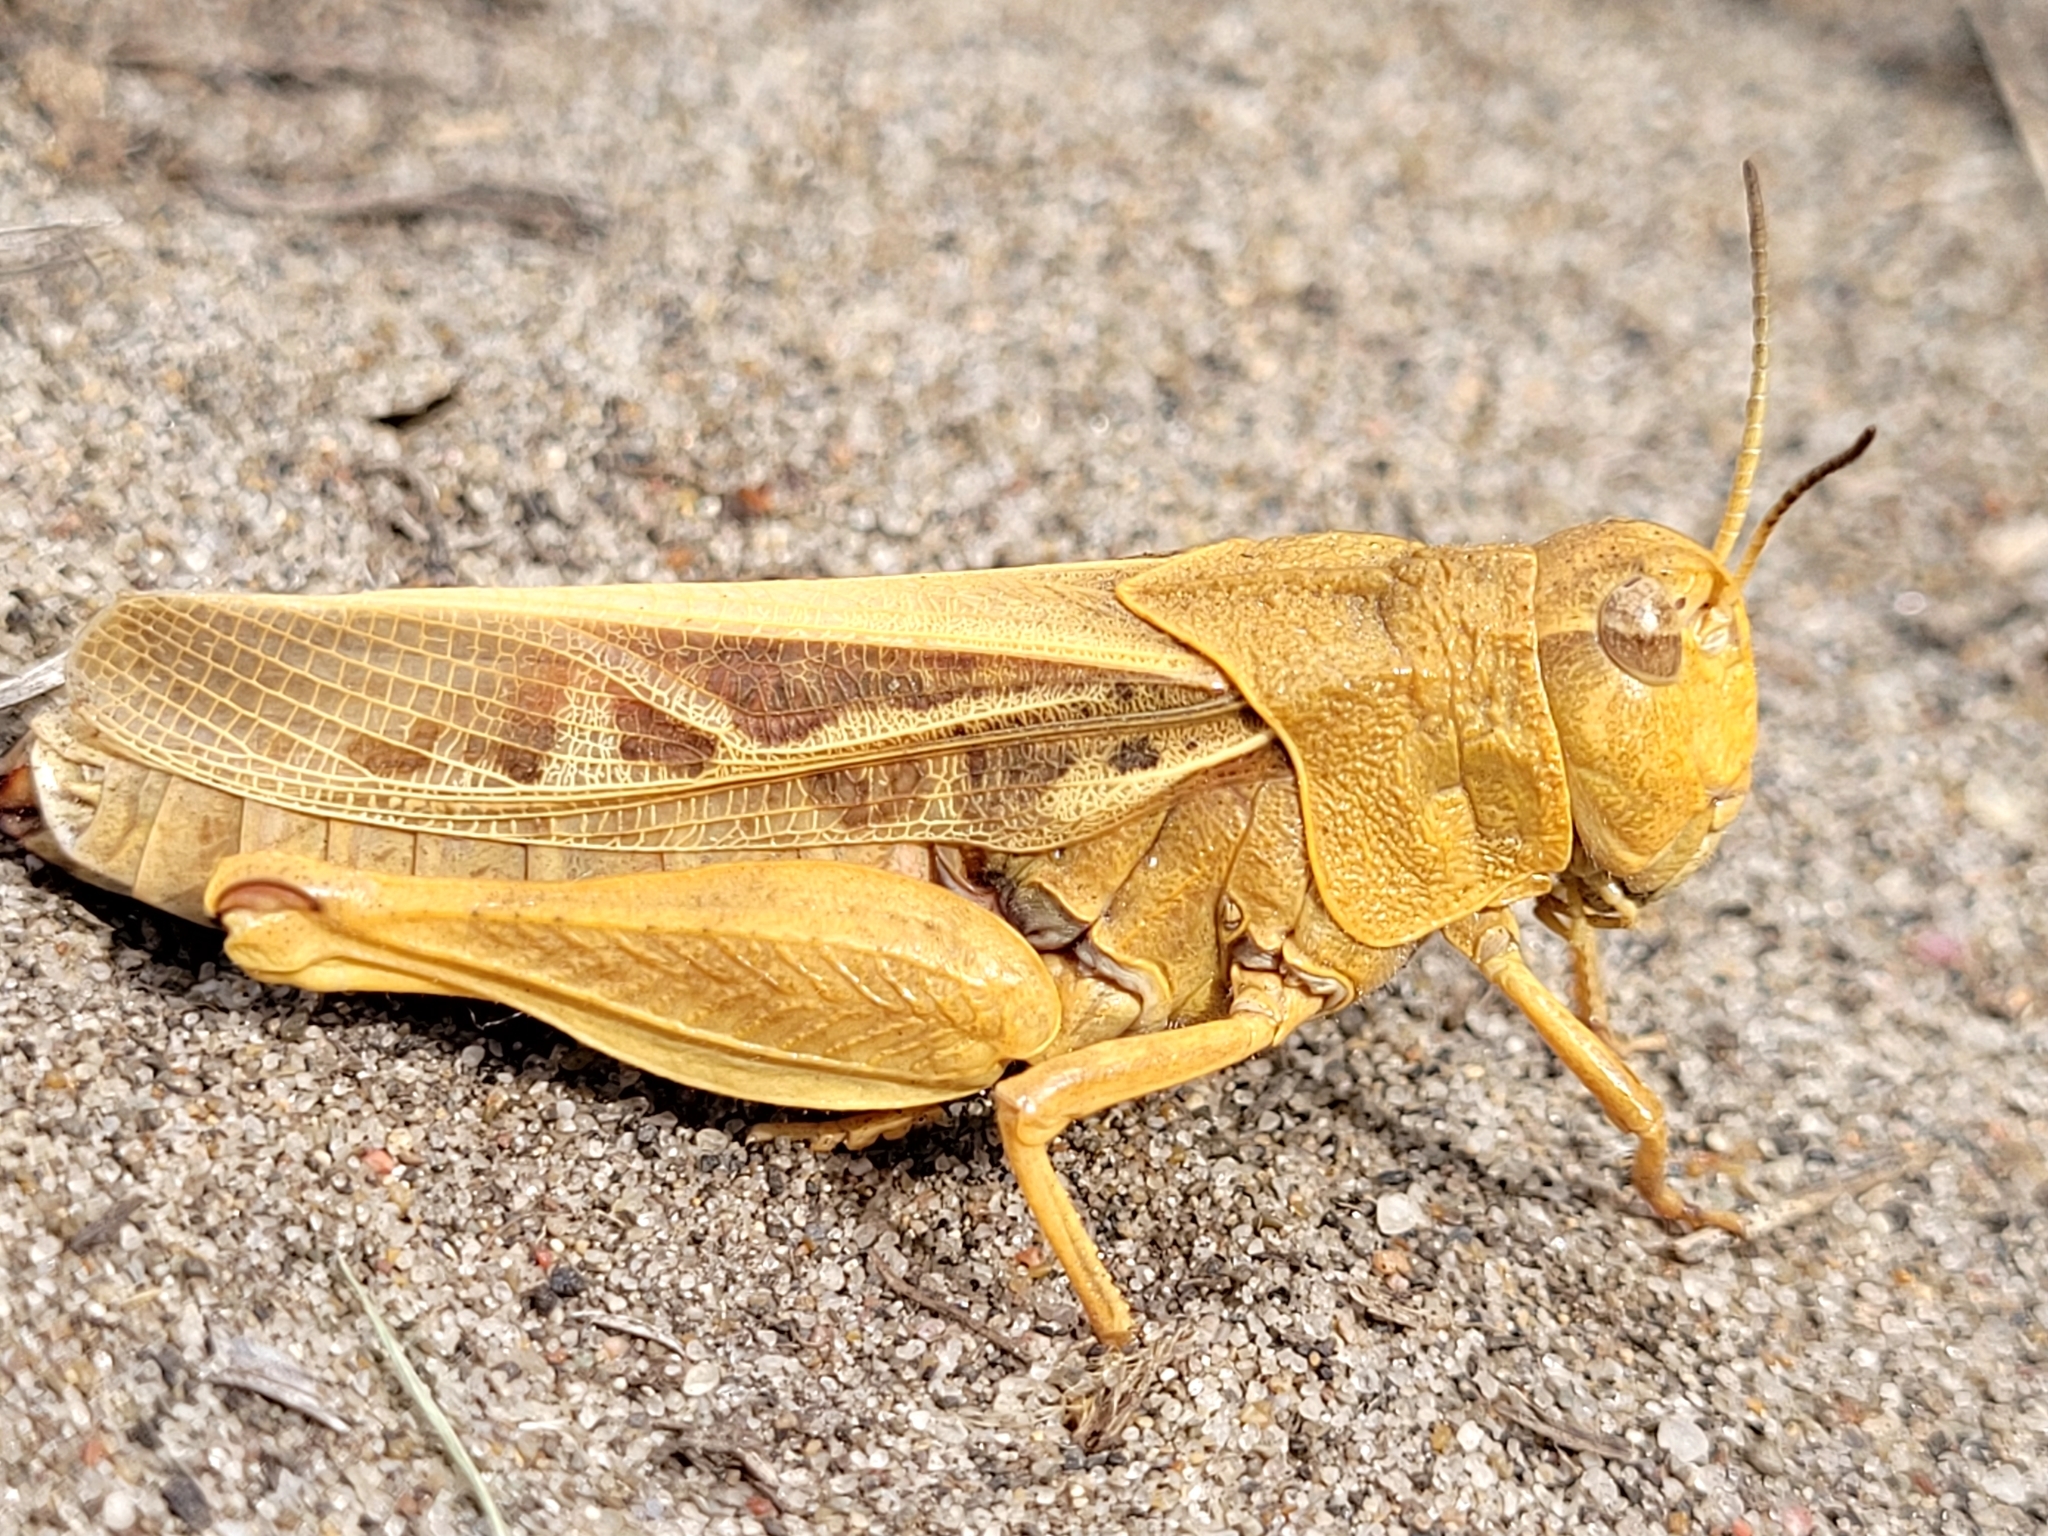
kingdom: Animalia
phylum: Arthropoda
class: Insecta
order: Orthoptera
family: Acrididae
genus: Pardalophora
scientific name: Pardalophora apiculata
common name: Coral-winged locust
